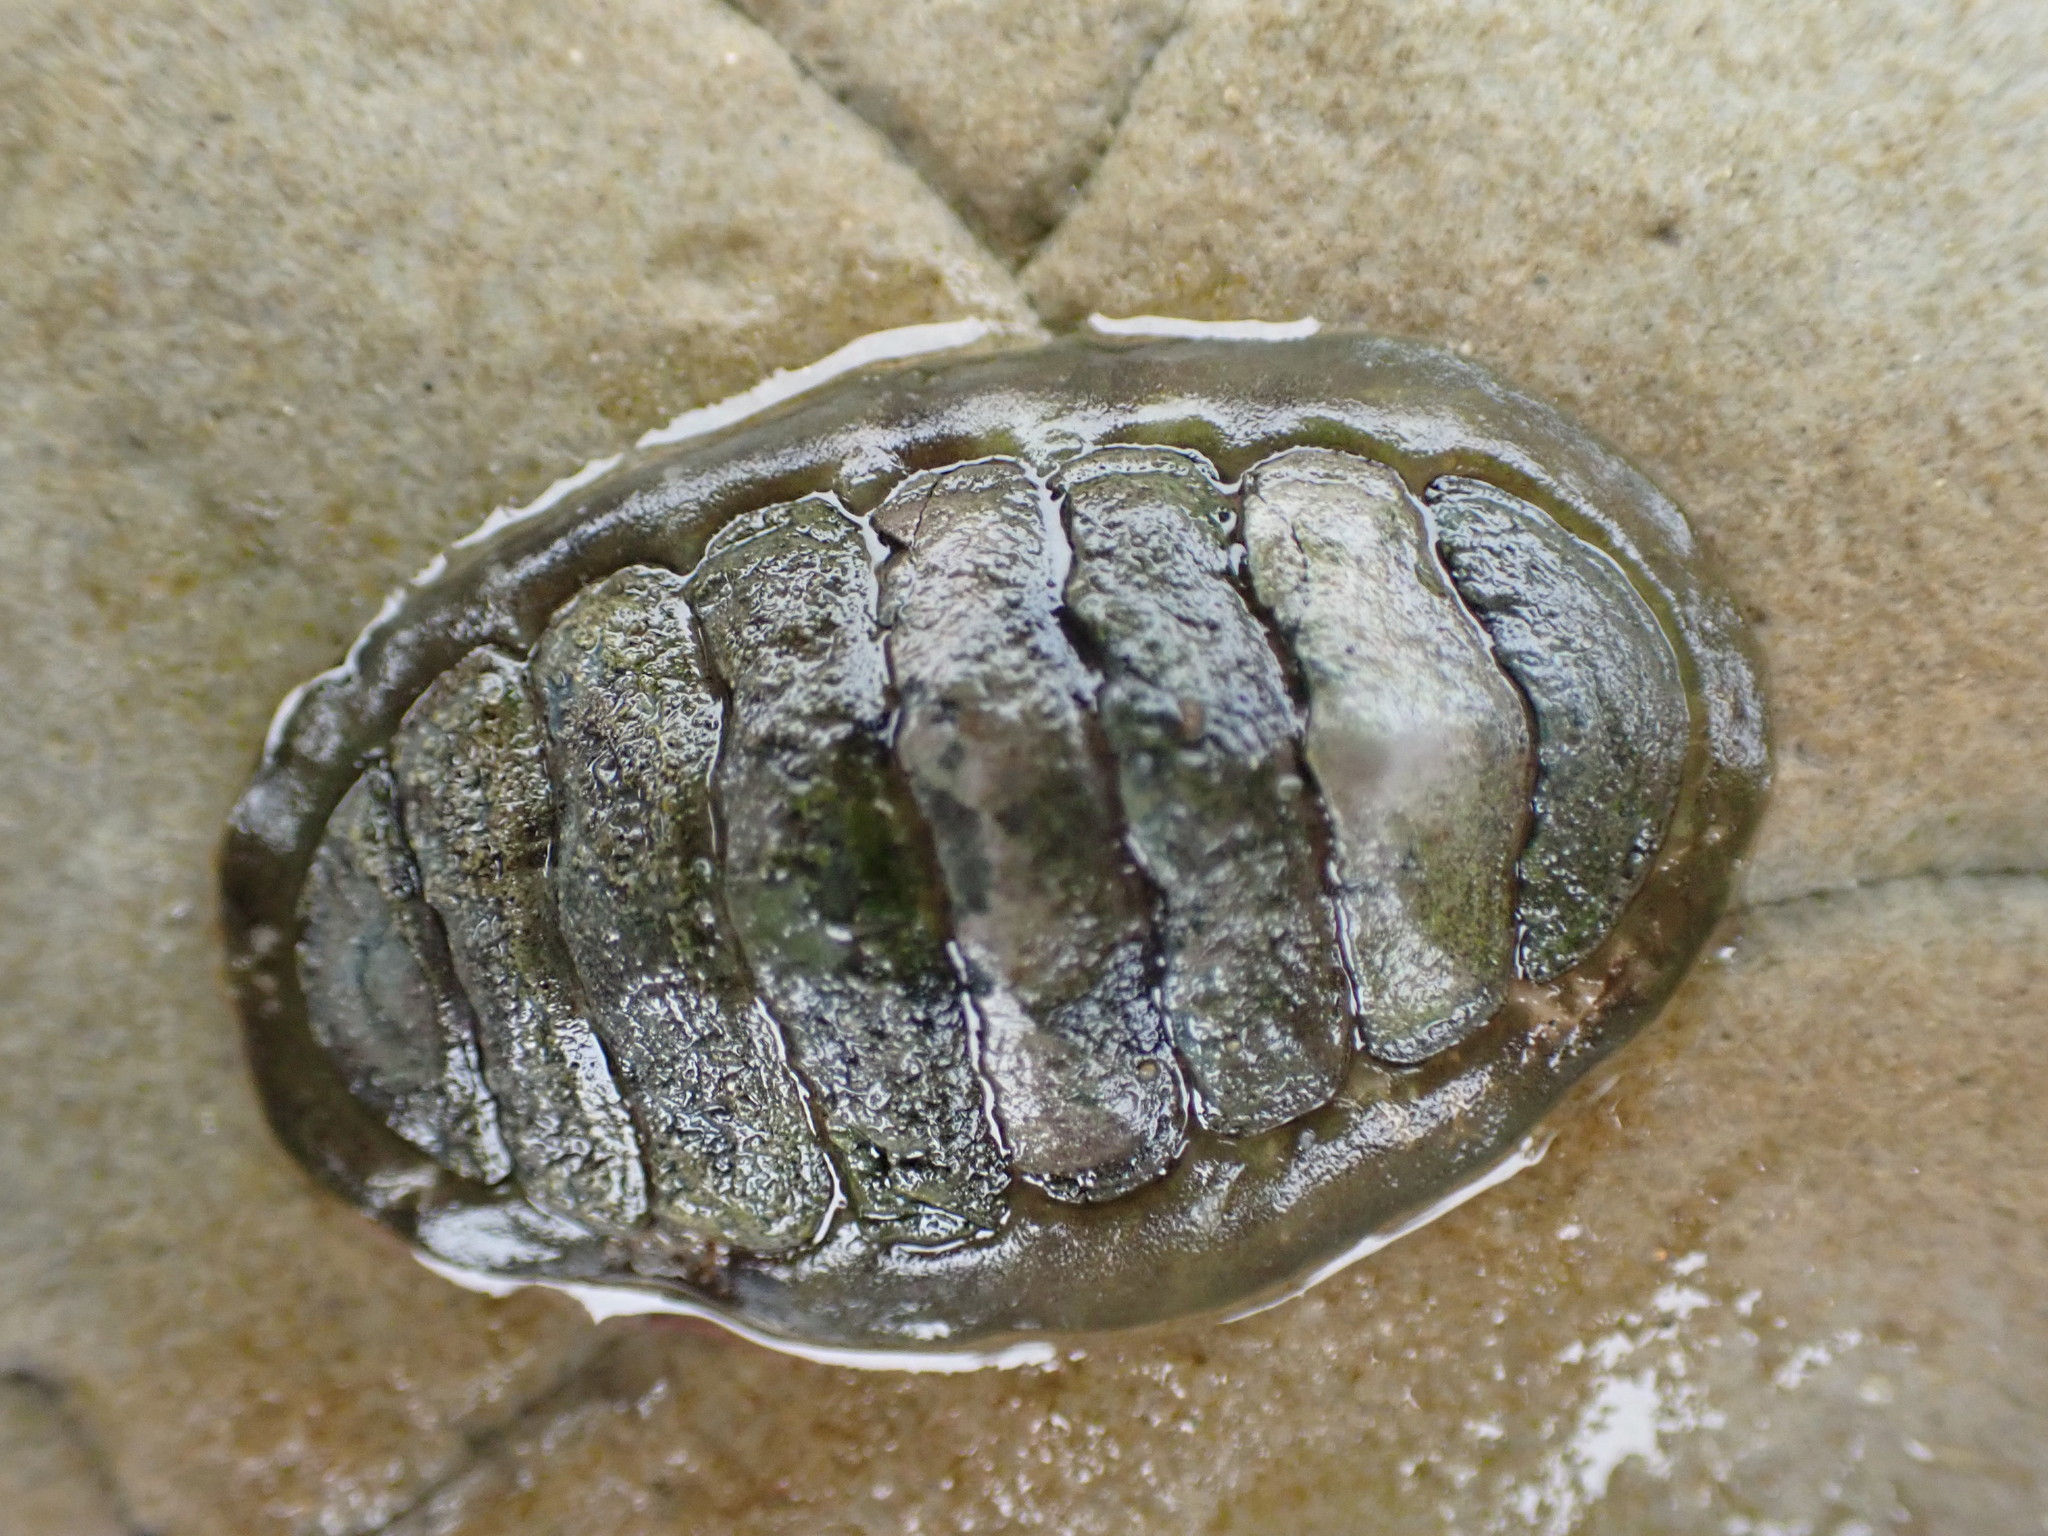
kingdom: Animalia
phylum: Mollusca
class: Polyplacophora
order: Chitonida
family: Tonicellidae
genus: Cyanoplax
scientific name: Cyanoplax hartwegii
